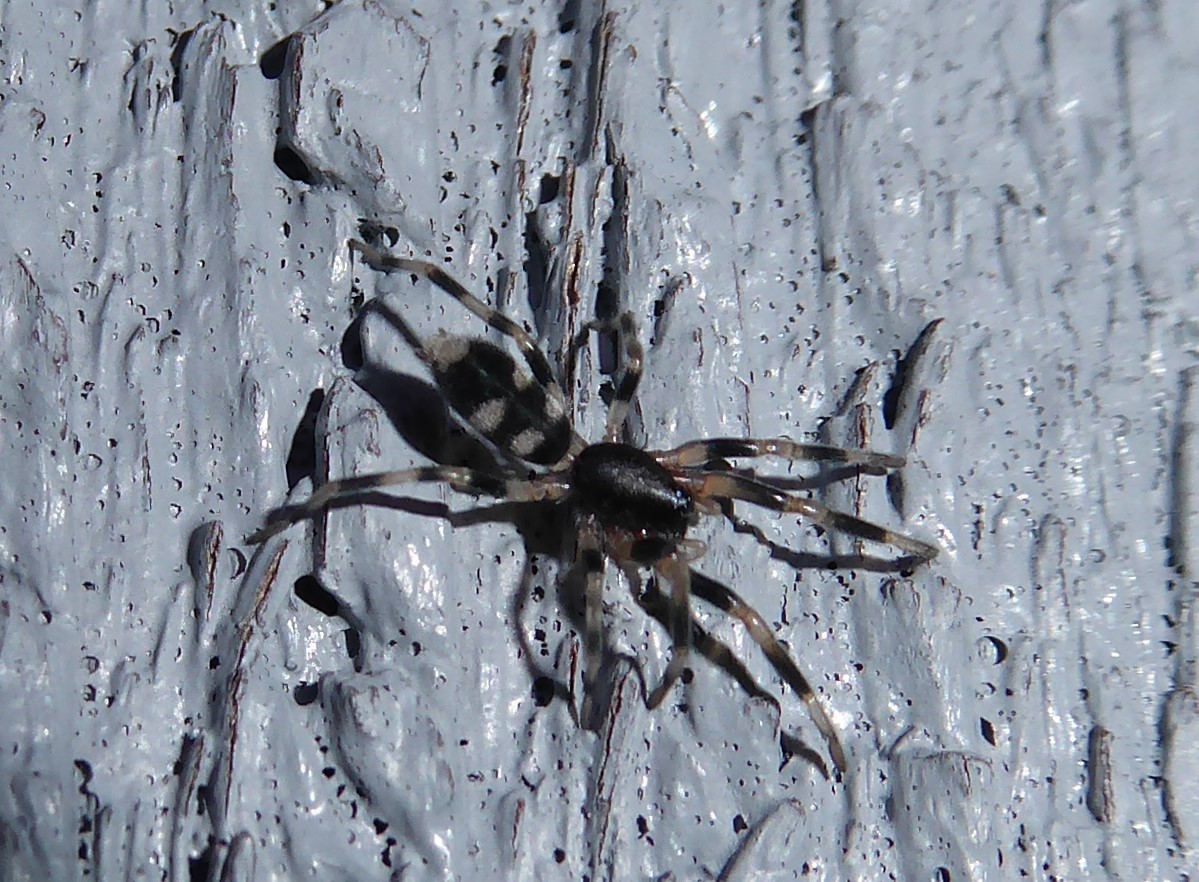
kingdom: Animalia
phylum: Arthropoda
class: Arachnida
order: Araneae
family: Lamponidae
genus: Lampona
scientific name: Lampona cylindrata
